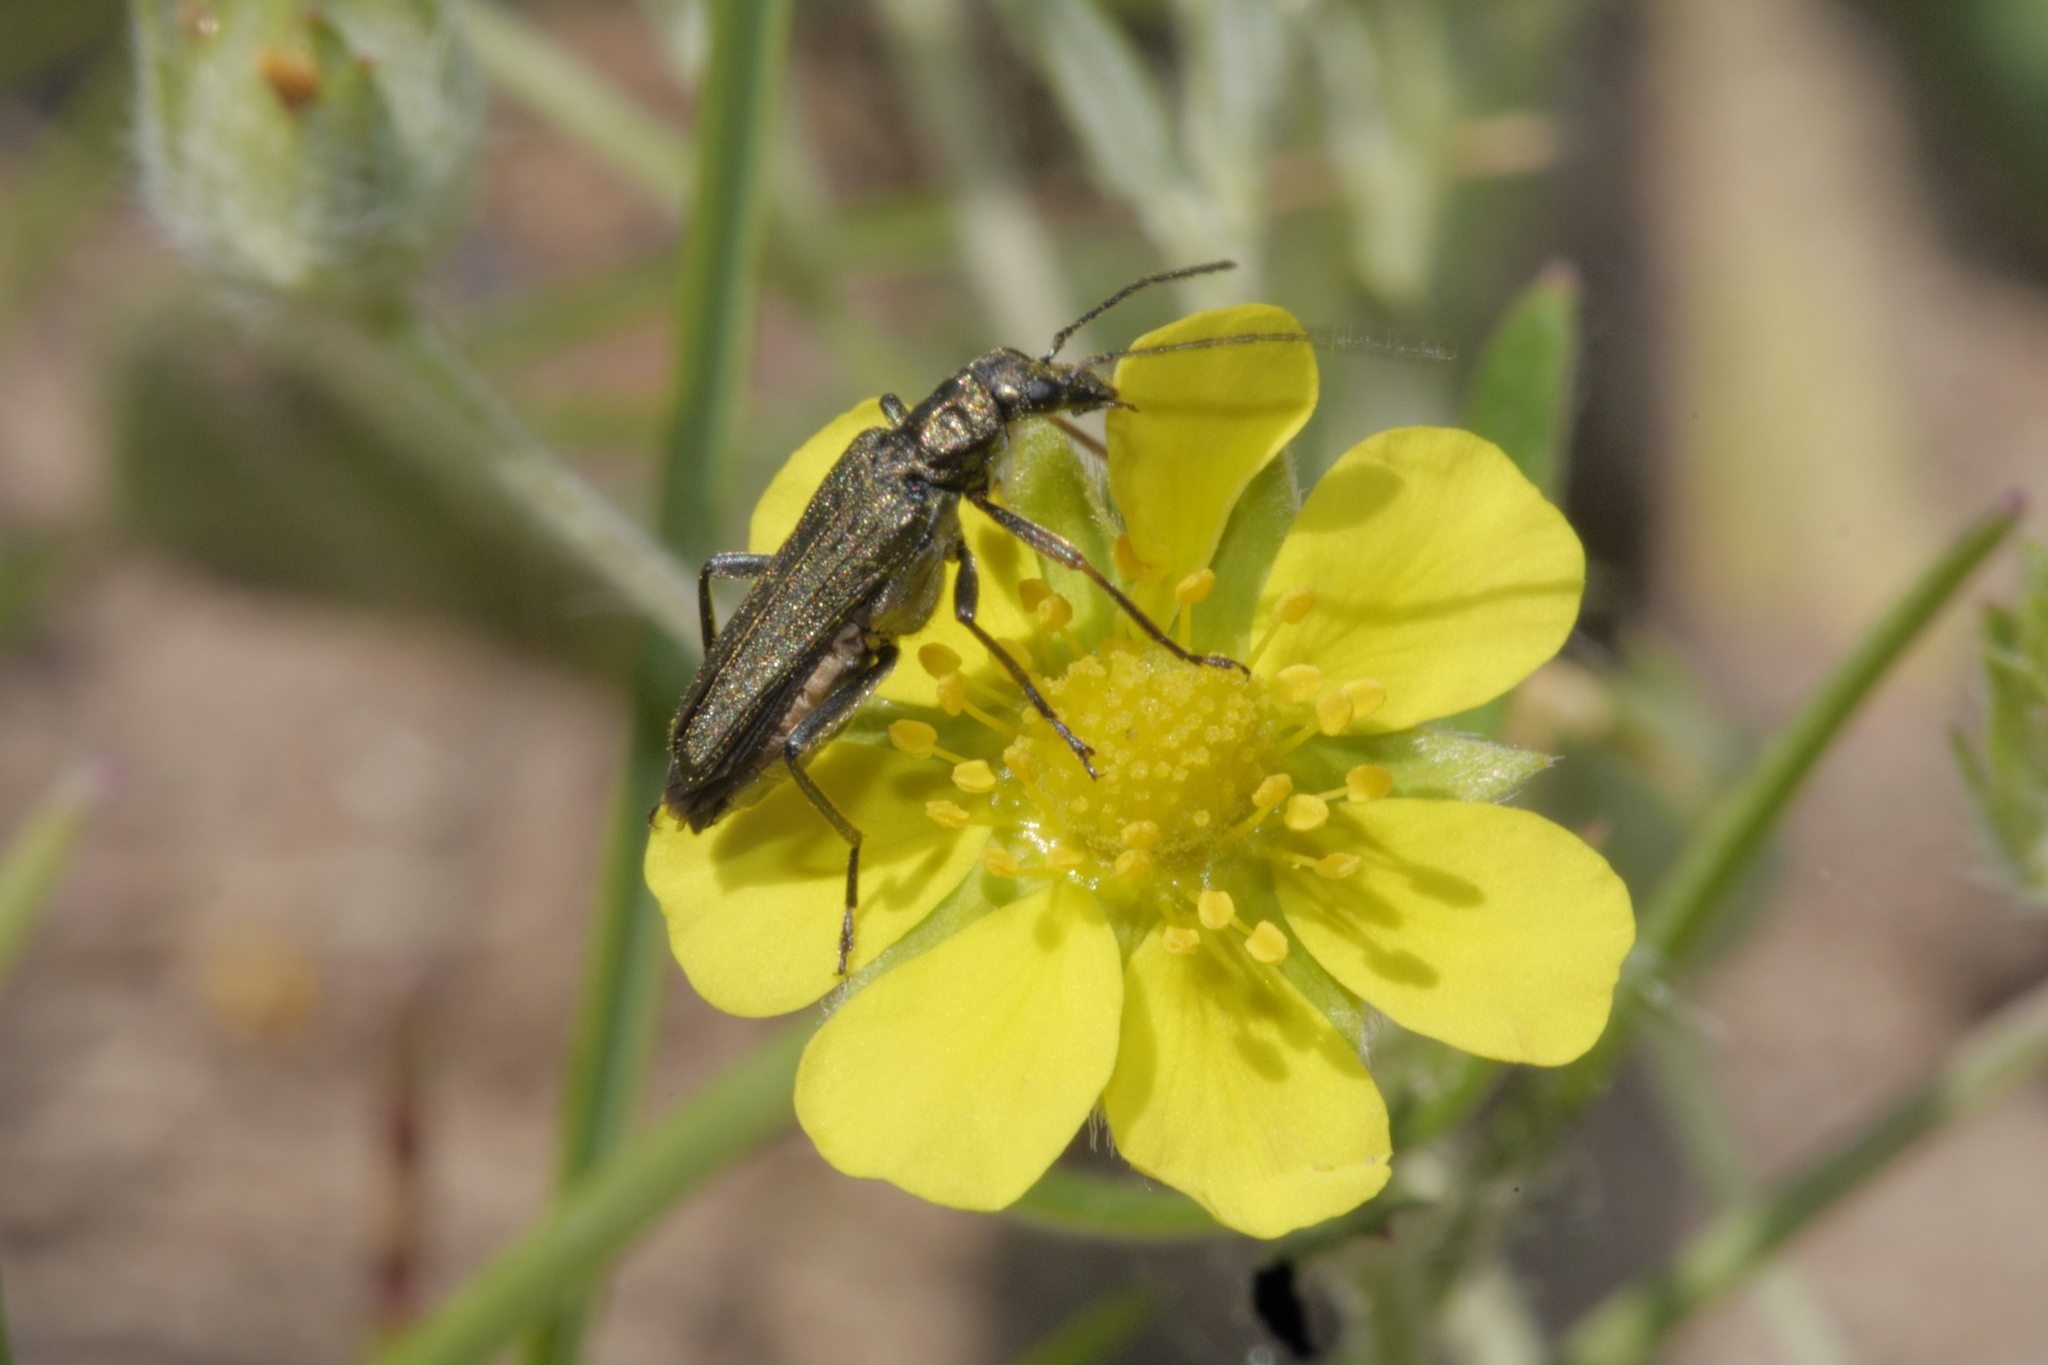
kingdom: Animalia
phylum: Arthropoda
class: Insecta
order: Coleoptera
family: Oedemeridae
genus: Oedemera
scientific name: Oedemera flavipes
